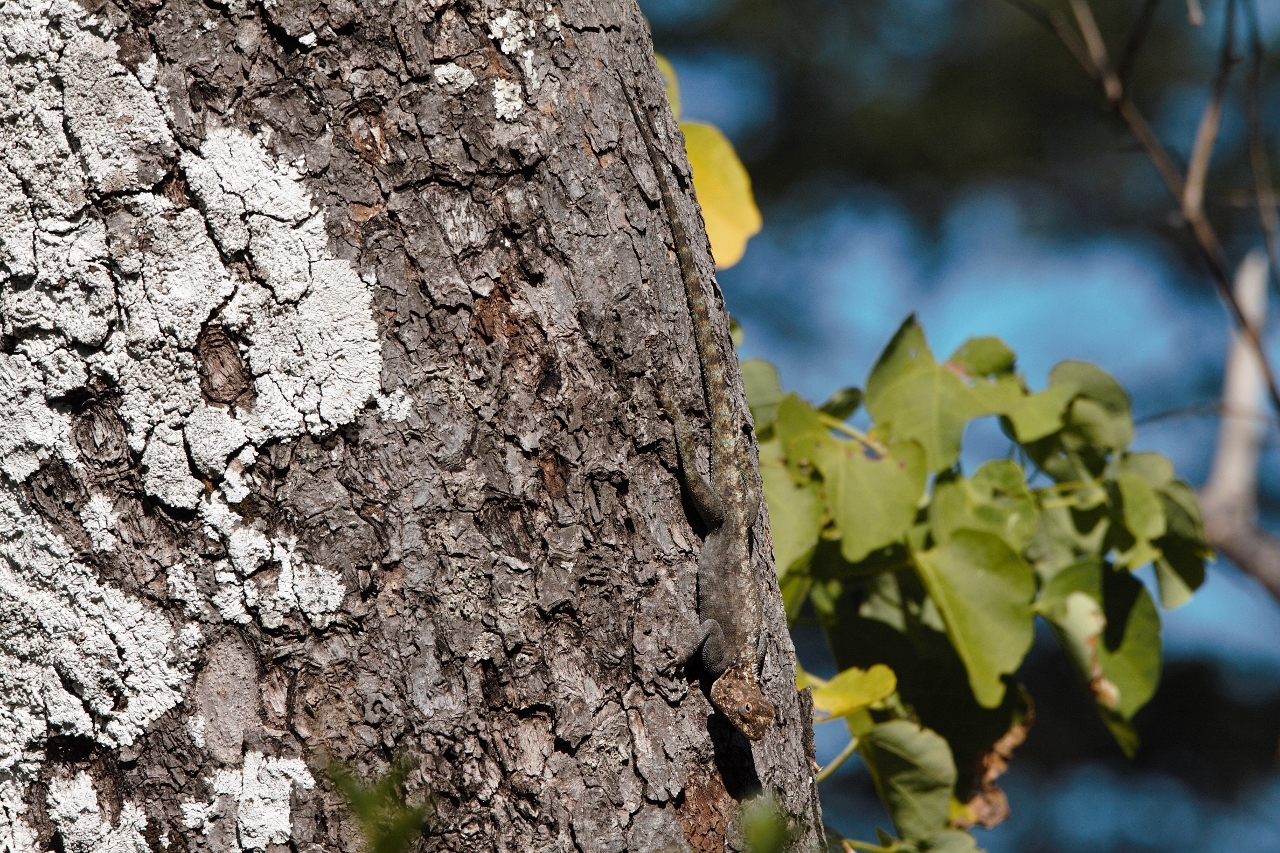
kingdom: Animalia
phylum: Chordata
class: Squamata
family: Agamidae
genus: Agama
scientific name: Agama kirkii
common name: Kirk's rock agama
